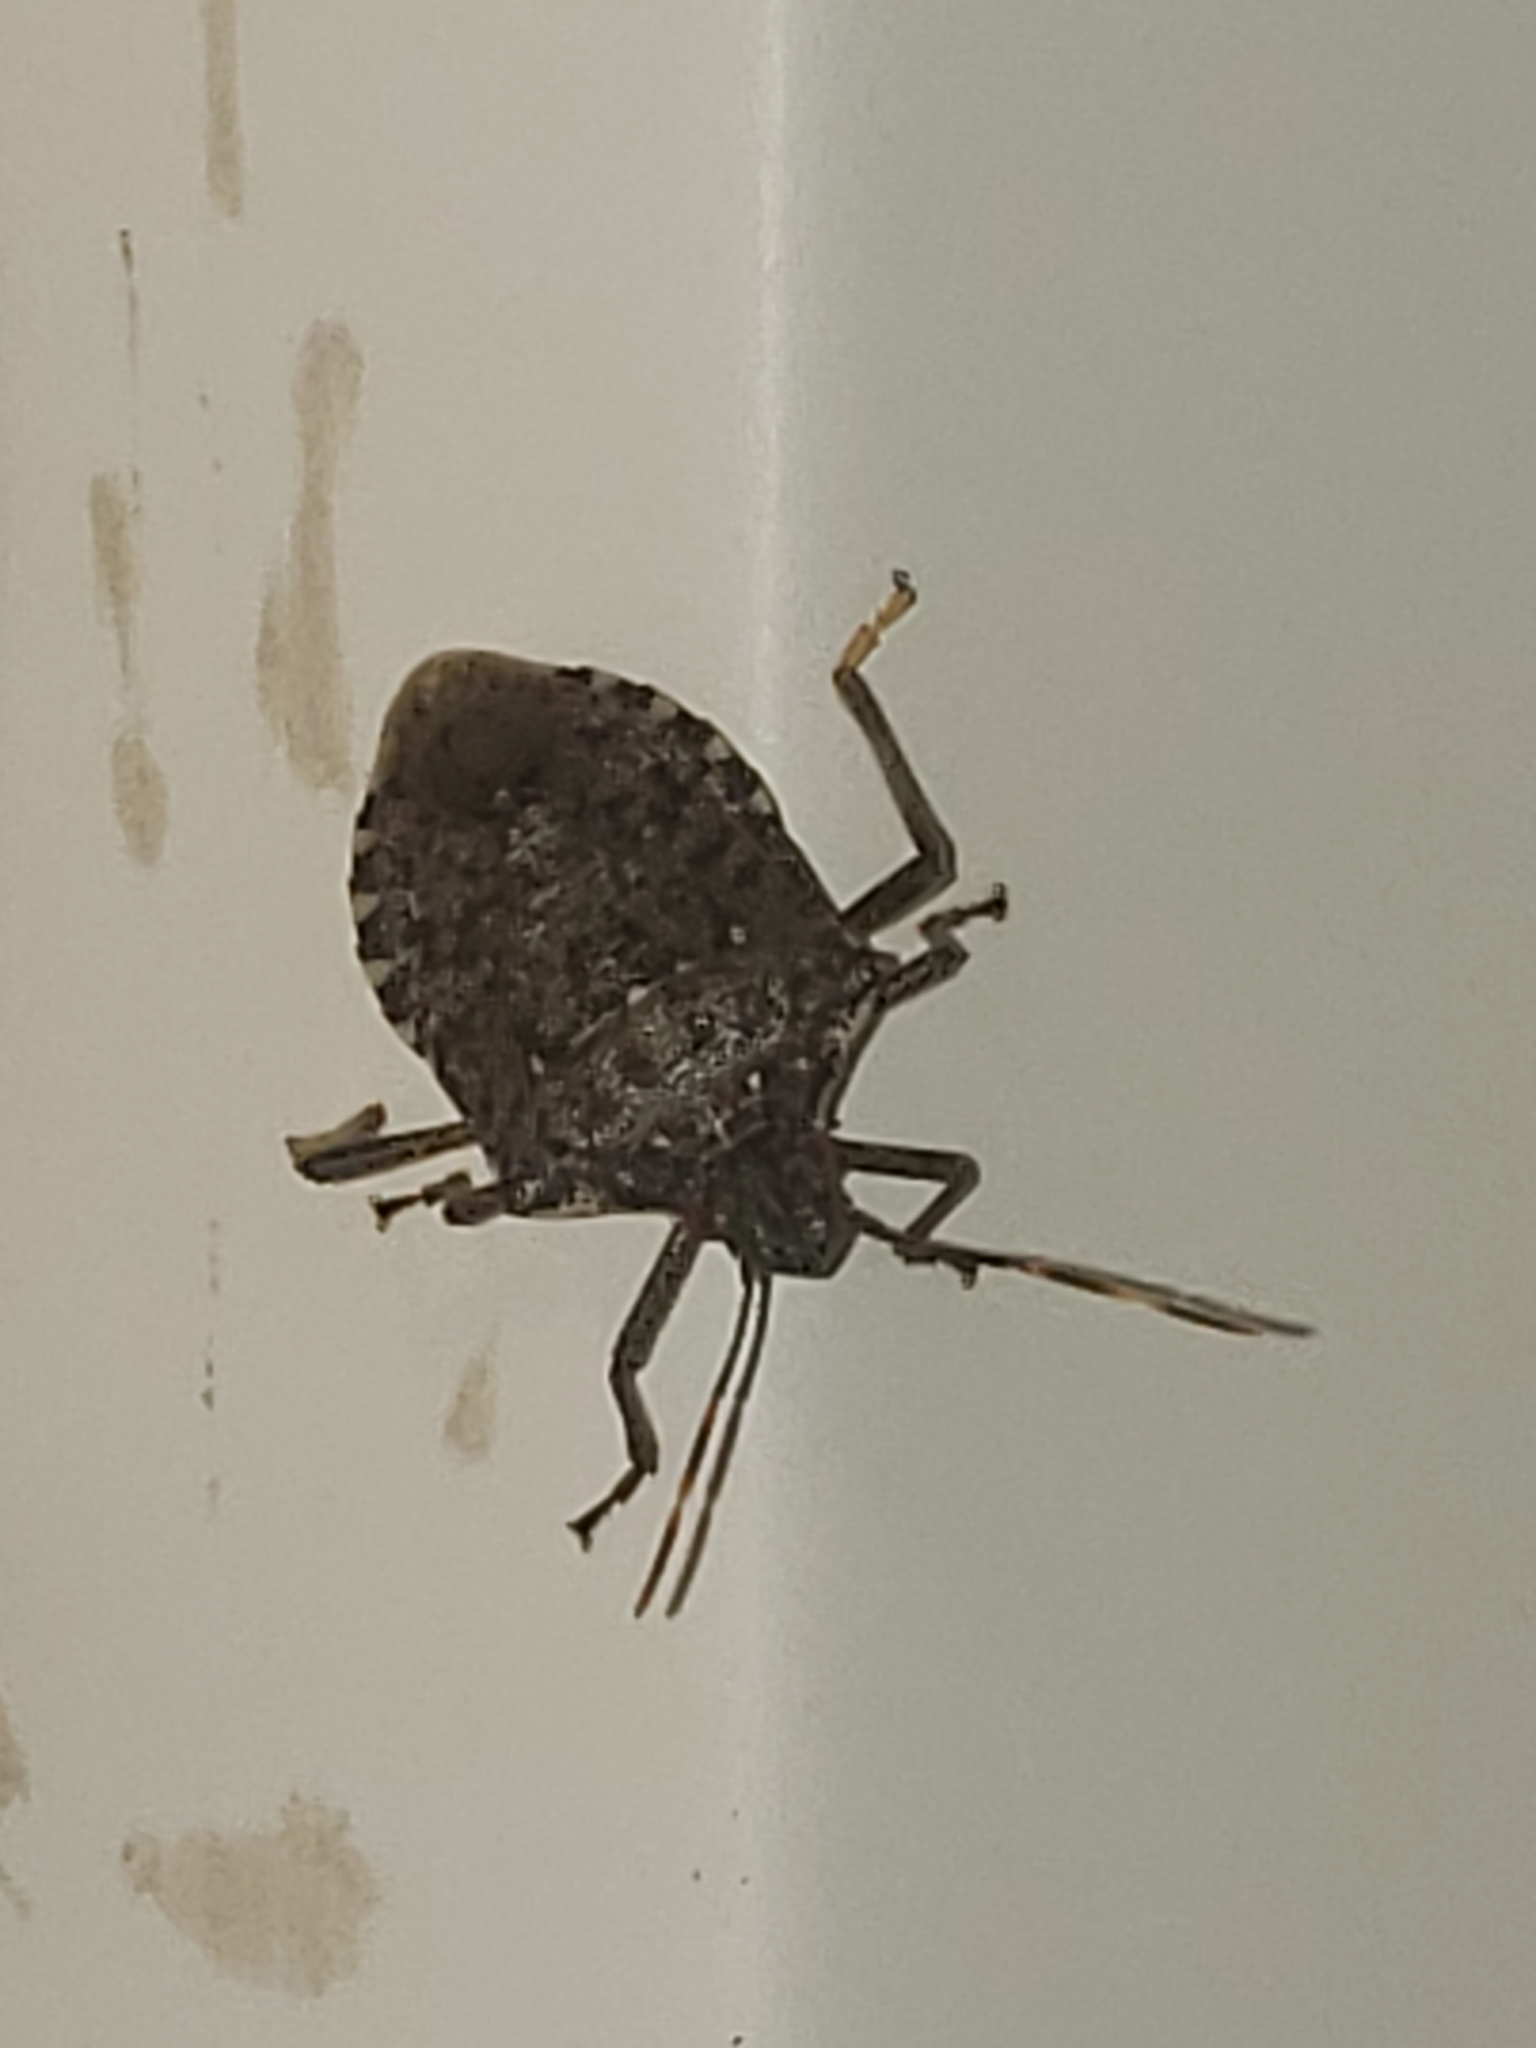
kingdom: Animalia
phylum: Arthropoda
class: Insecta
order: Hemiptera
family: Pentatomidae
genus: Halyomorpha
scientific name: Halyomorpha halys
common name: Brown marmorated stink bug
